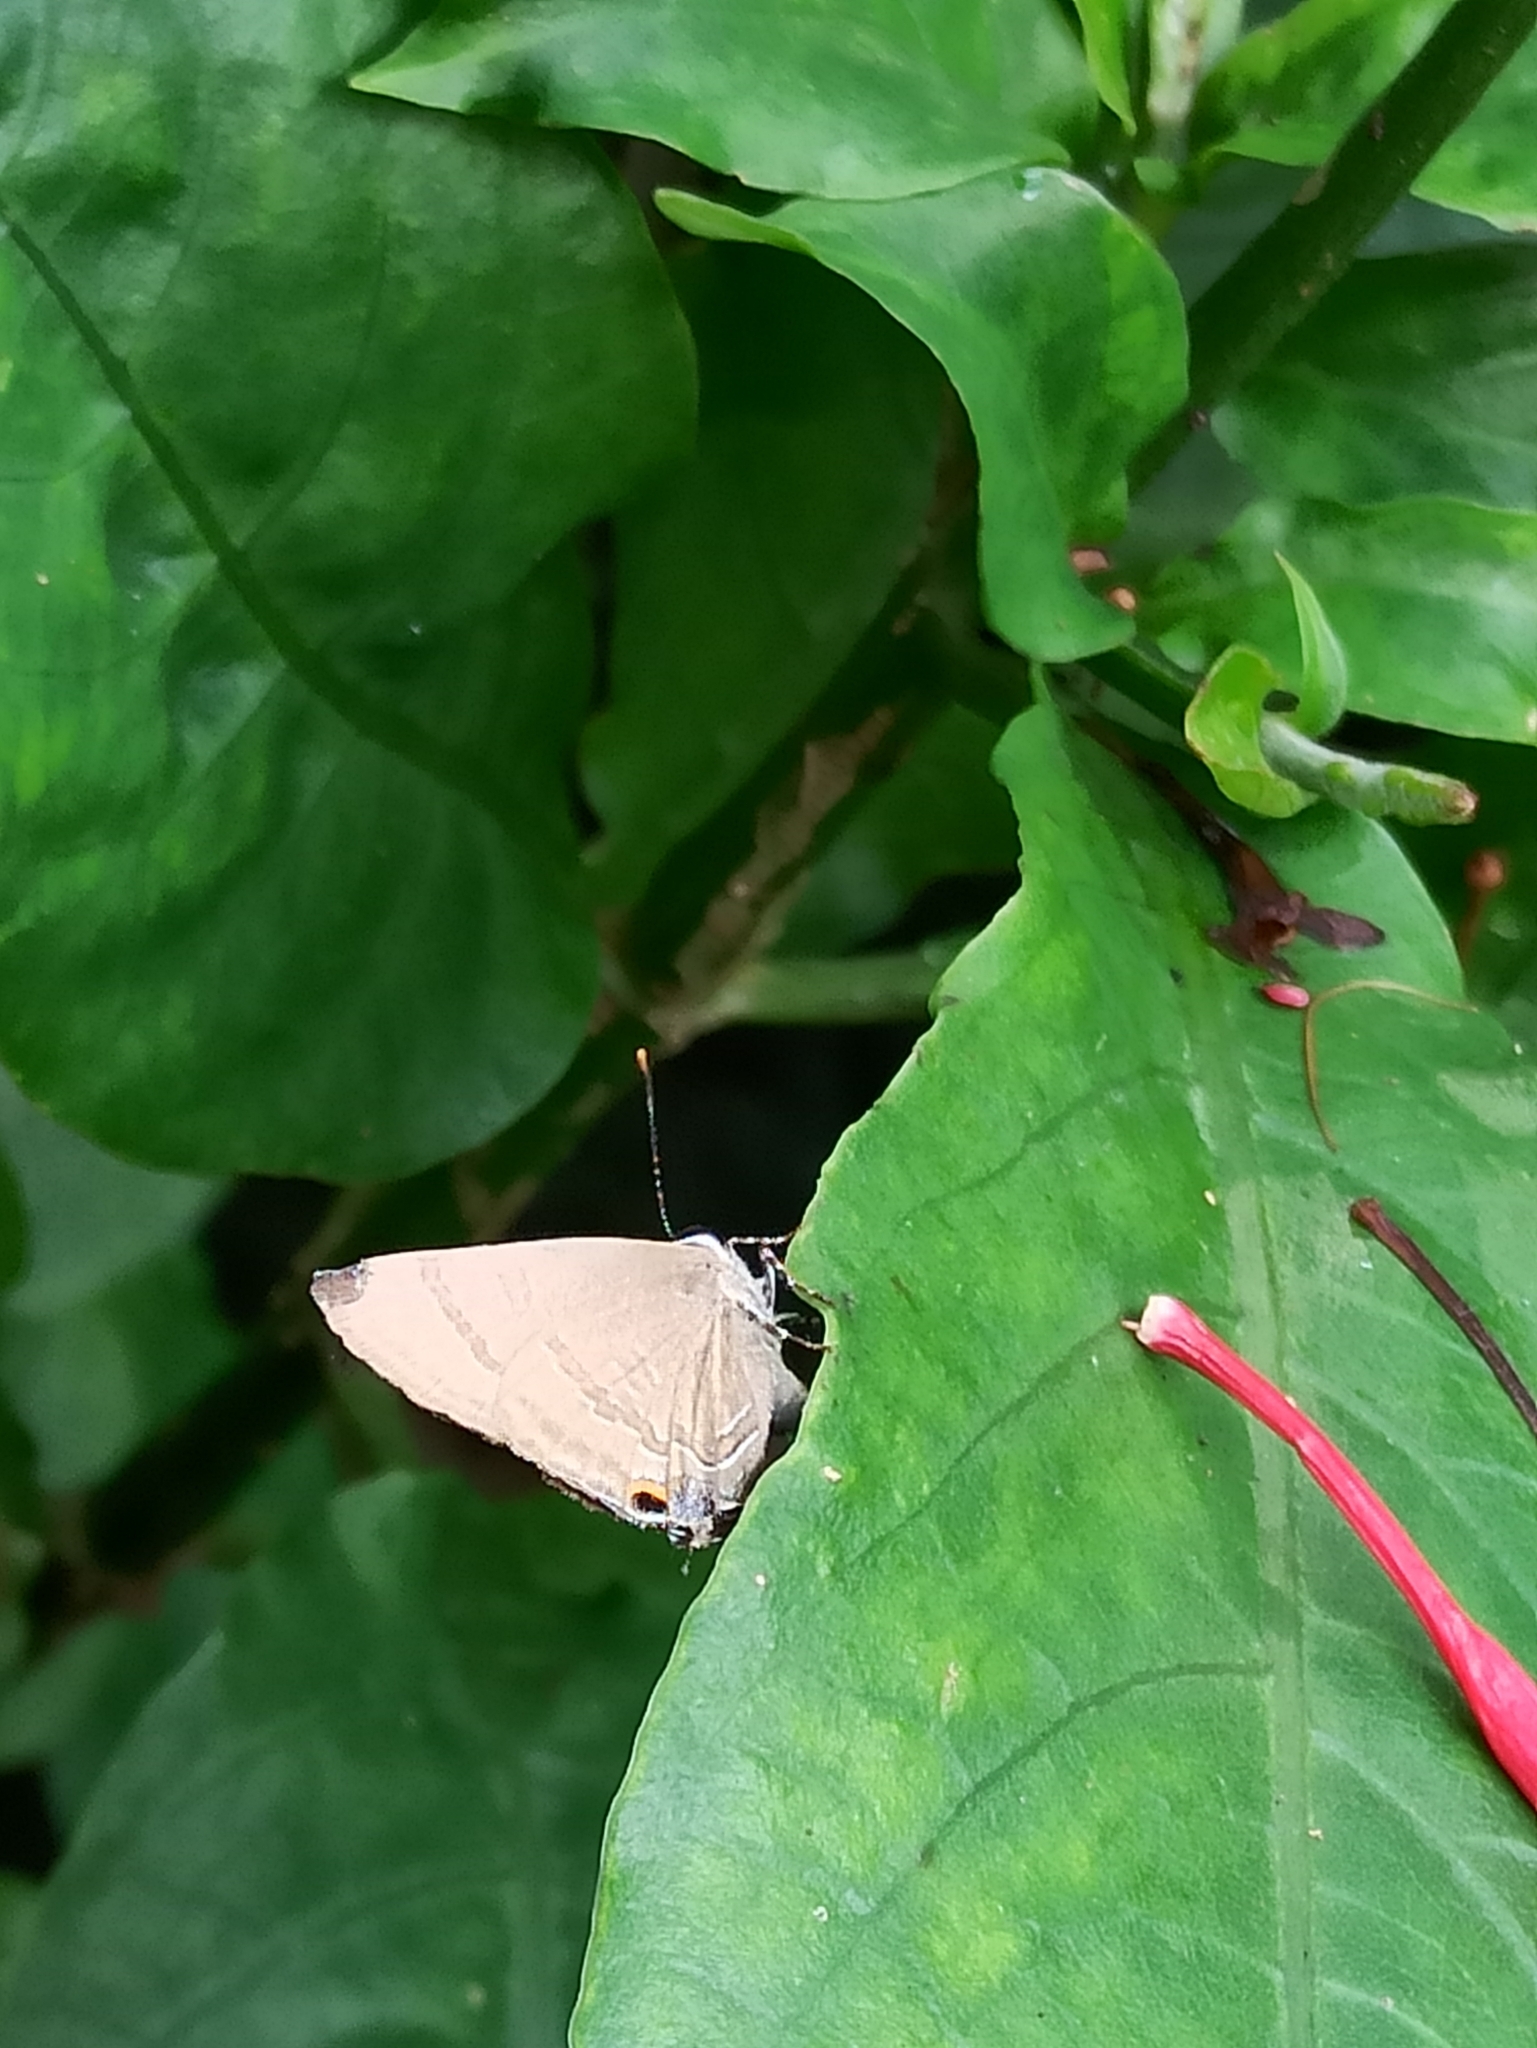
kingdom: Animalia
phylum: Arthropoda
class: Insecta
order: Lepidoptera
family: Lycaenidae
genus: Rapala
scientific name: Rapala manea
